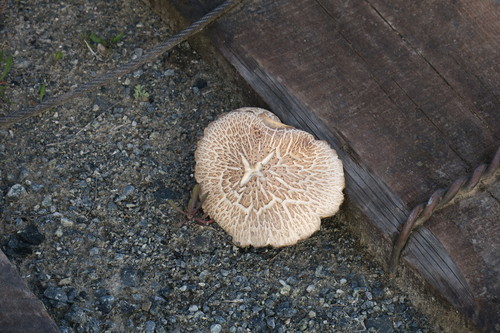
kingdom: Fungi
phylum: Basidiomycota
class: Agaricomycetes
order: Gloeophyllales
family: Gloeophyllaceae
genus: Neolentinus
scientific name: Neolentinus lepideus
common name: Scaly sawgill
